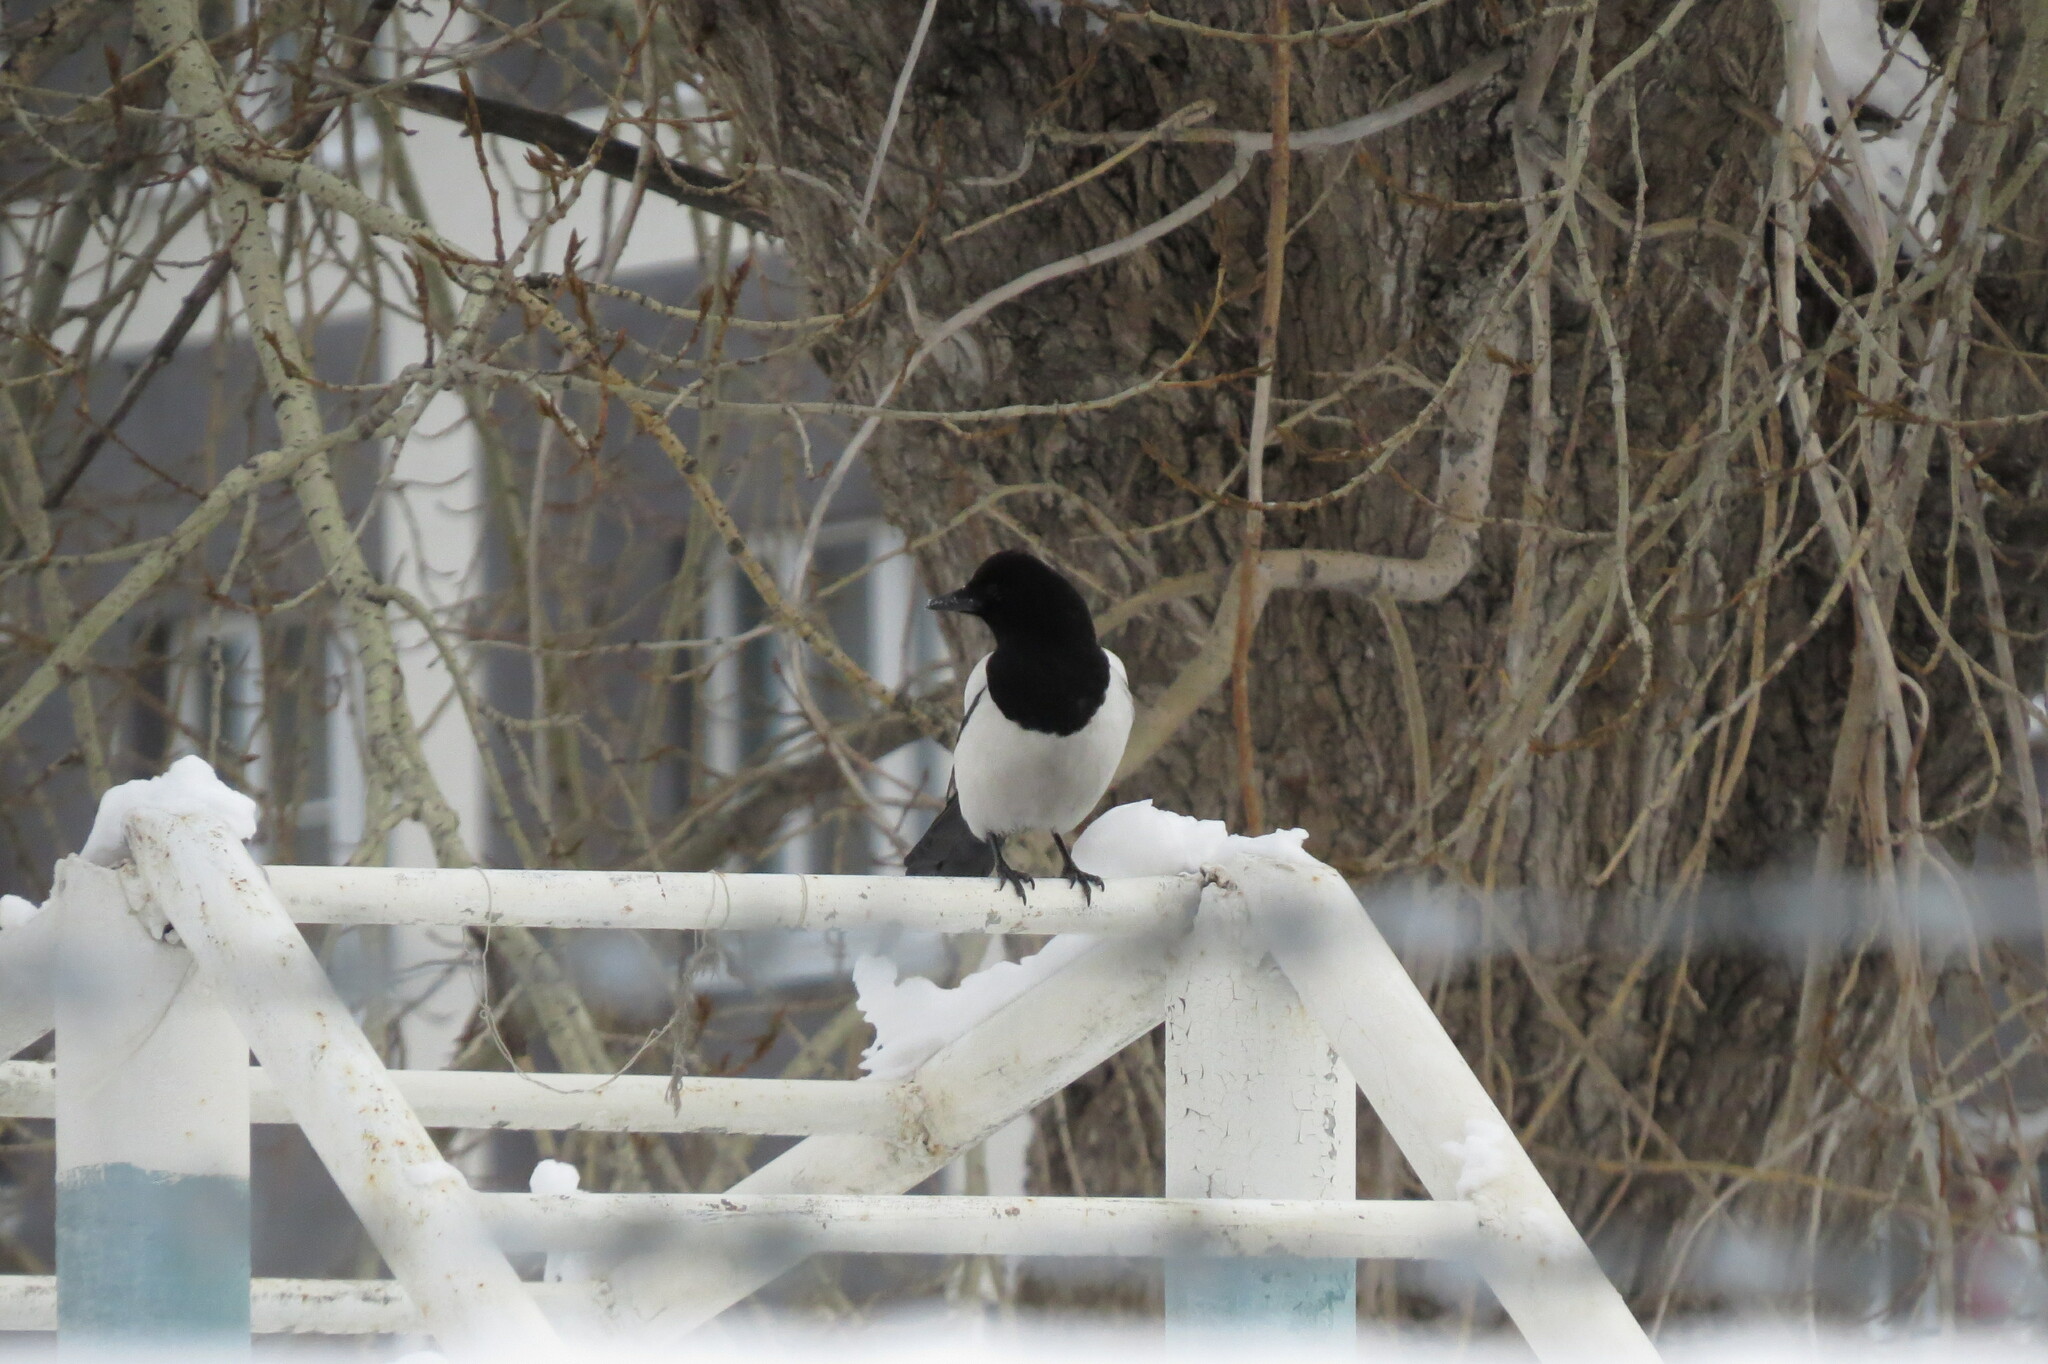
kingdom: Animalia
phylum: Chordata
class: Aves
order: Passeriformes
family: Corvidae
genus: Pica
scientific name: Pica pica
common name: Eurasian magpie
